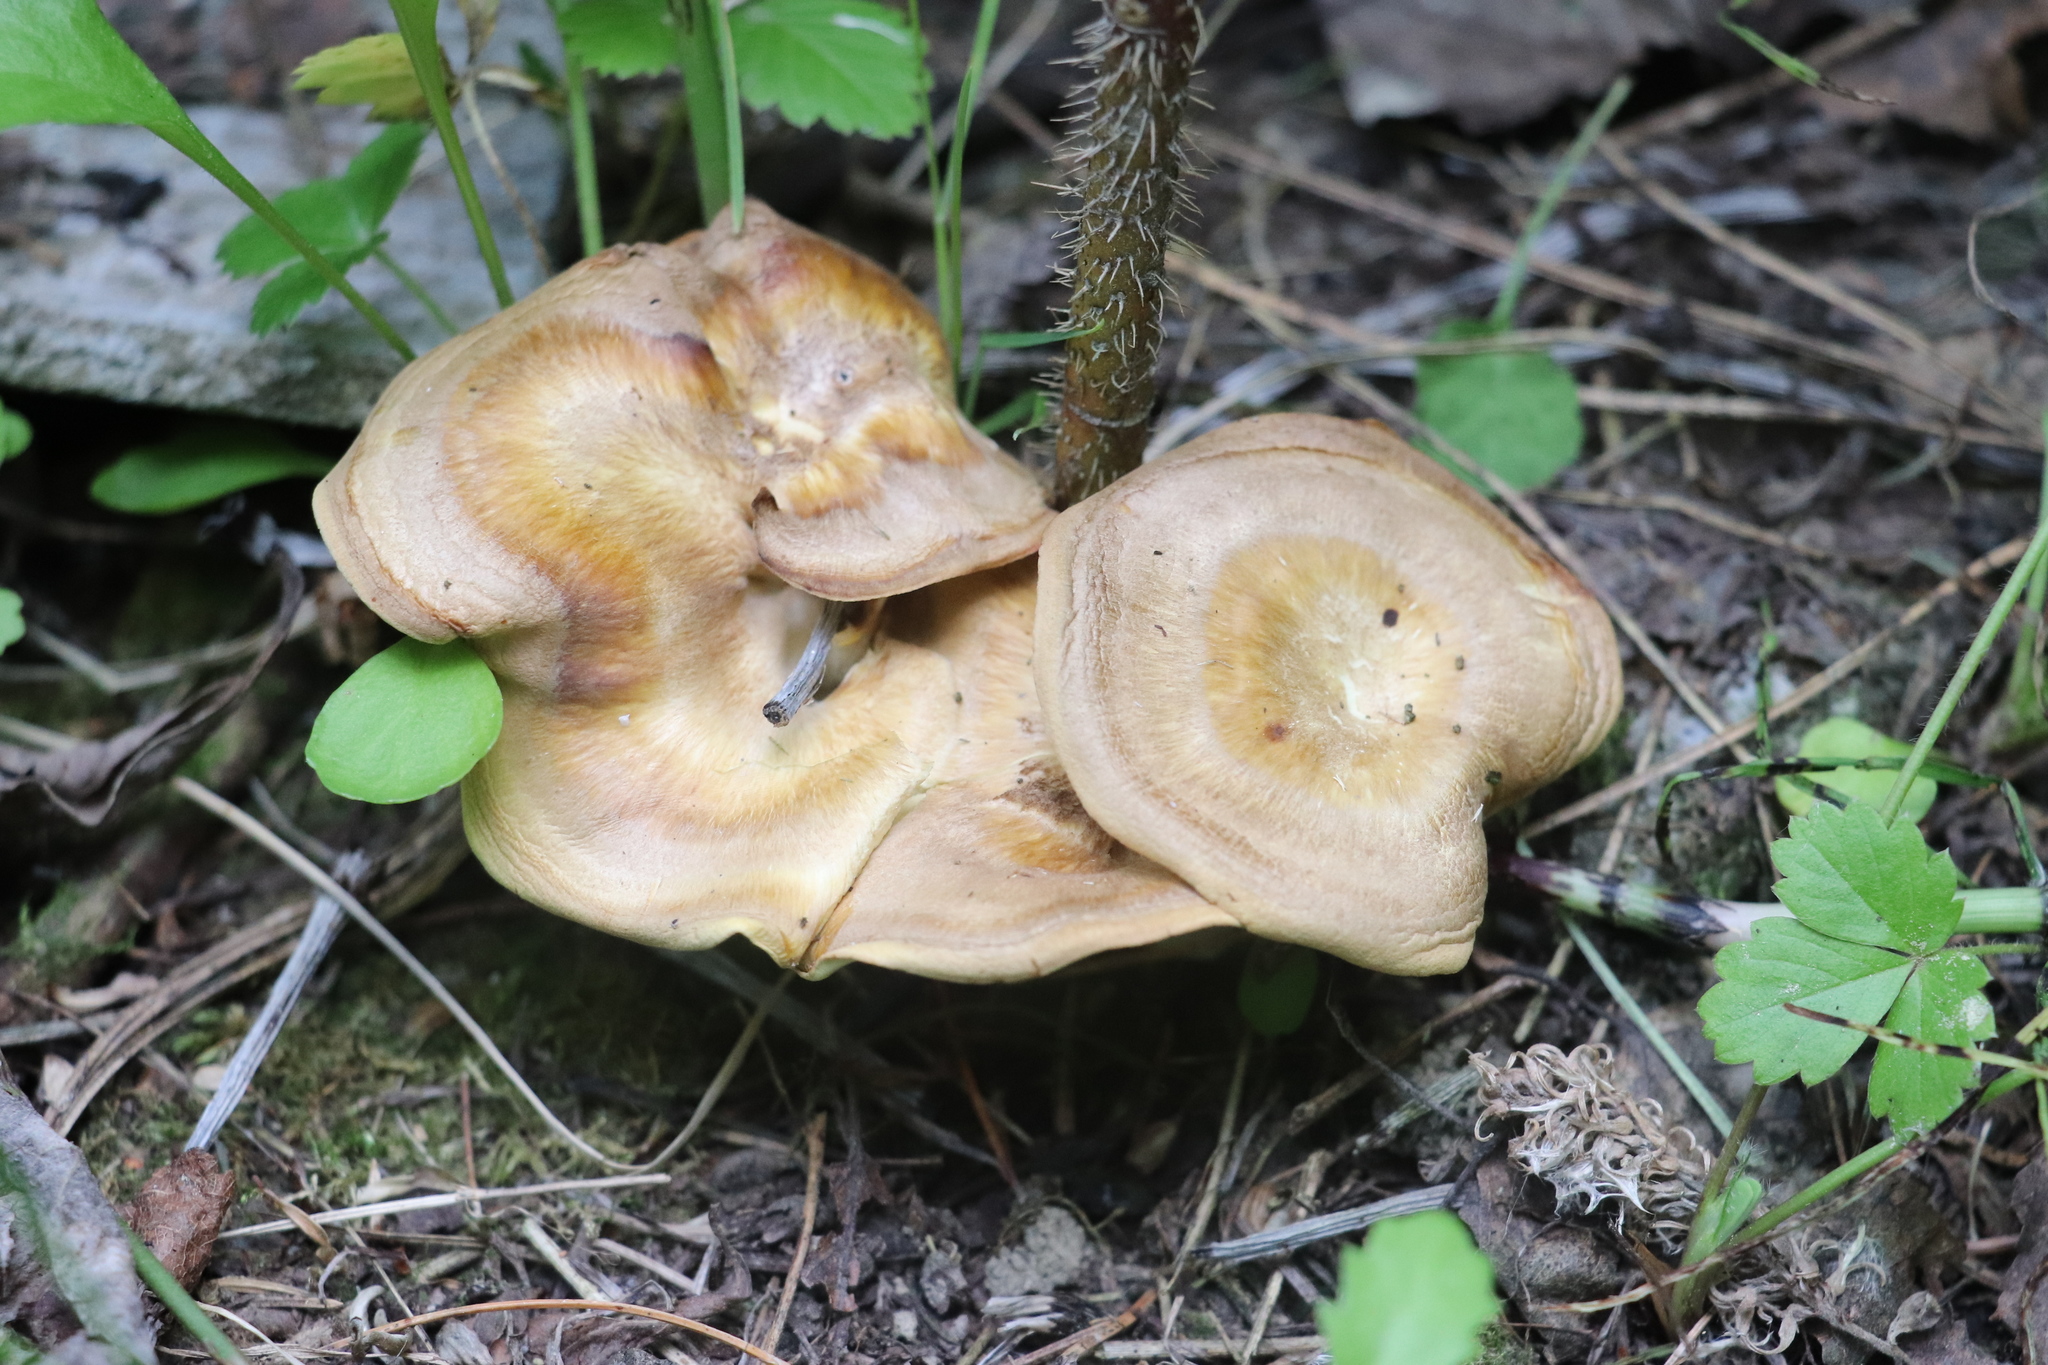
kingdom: Fungi
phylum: Basidiomycota
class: Agaricomycetes
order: Polyporales
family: Steccherinaceae
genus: Xanthoporus
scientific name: Xanthoporus syringae
